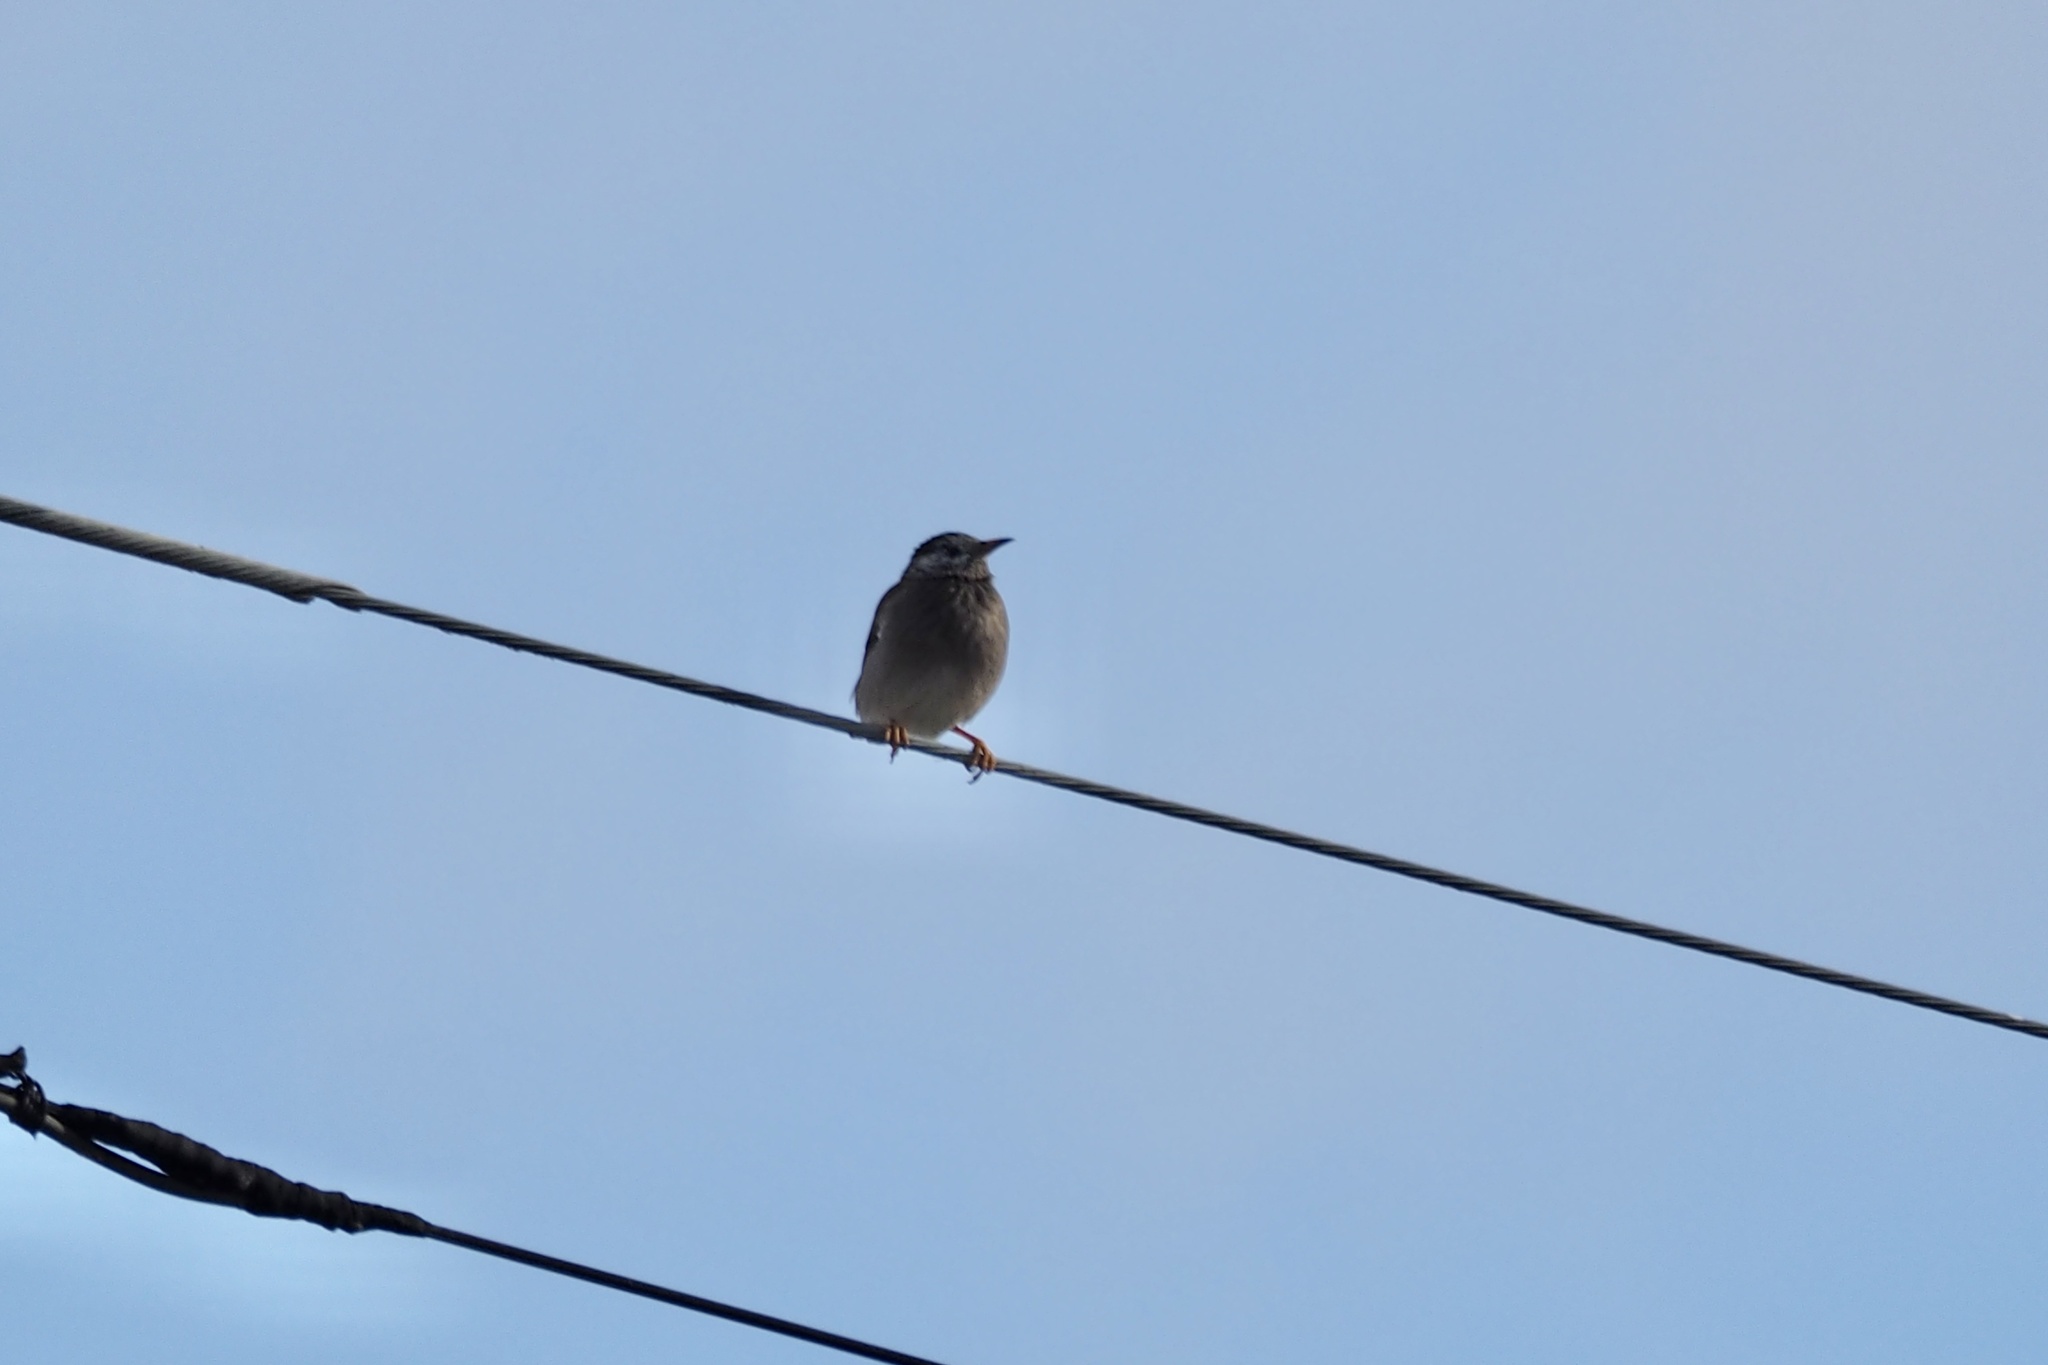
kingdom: Animalia
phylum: Chordata
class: Aves
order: Passeriformes
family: Sturnidae
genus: Spodiopsar
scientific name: Spodiopsar cineraceus
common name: White-cheeked starling
